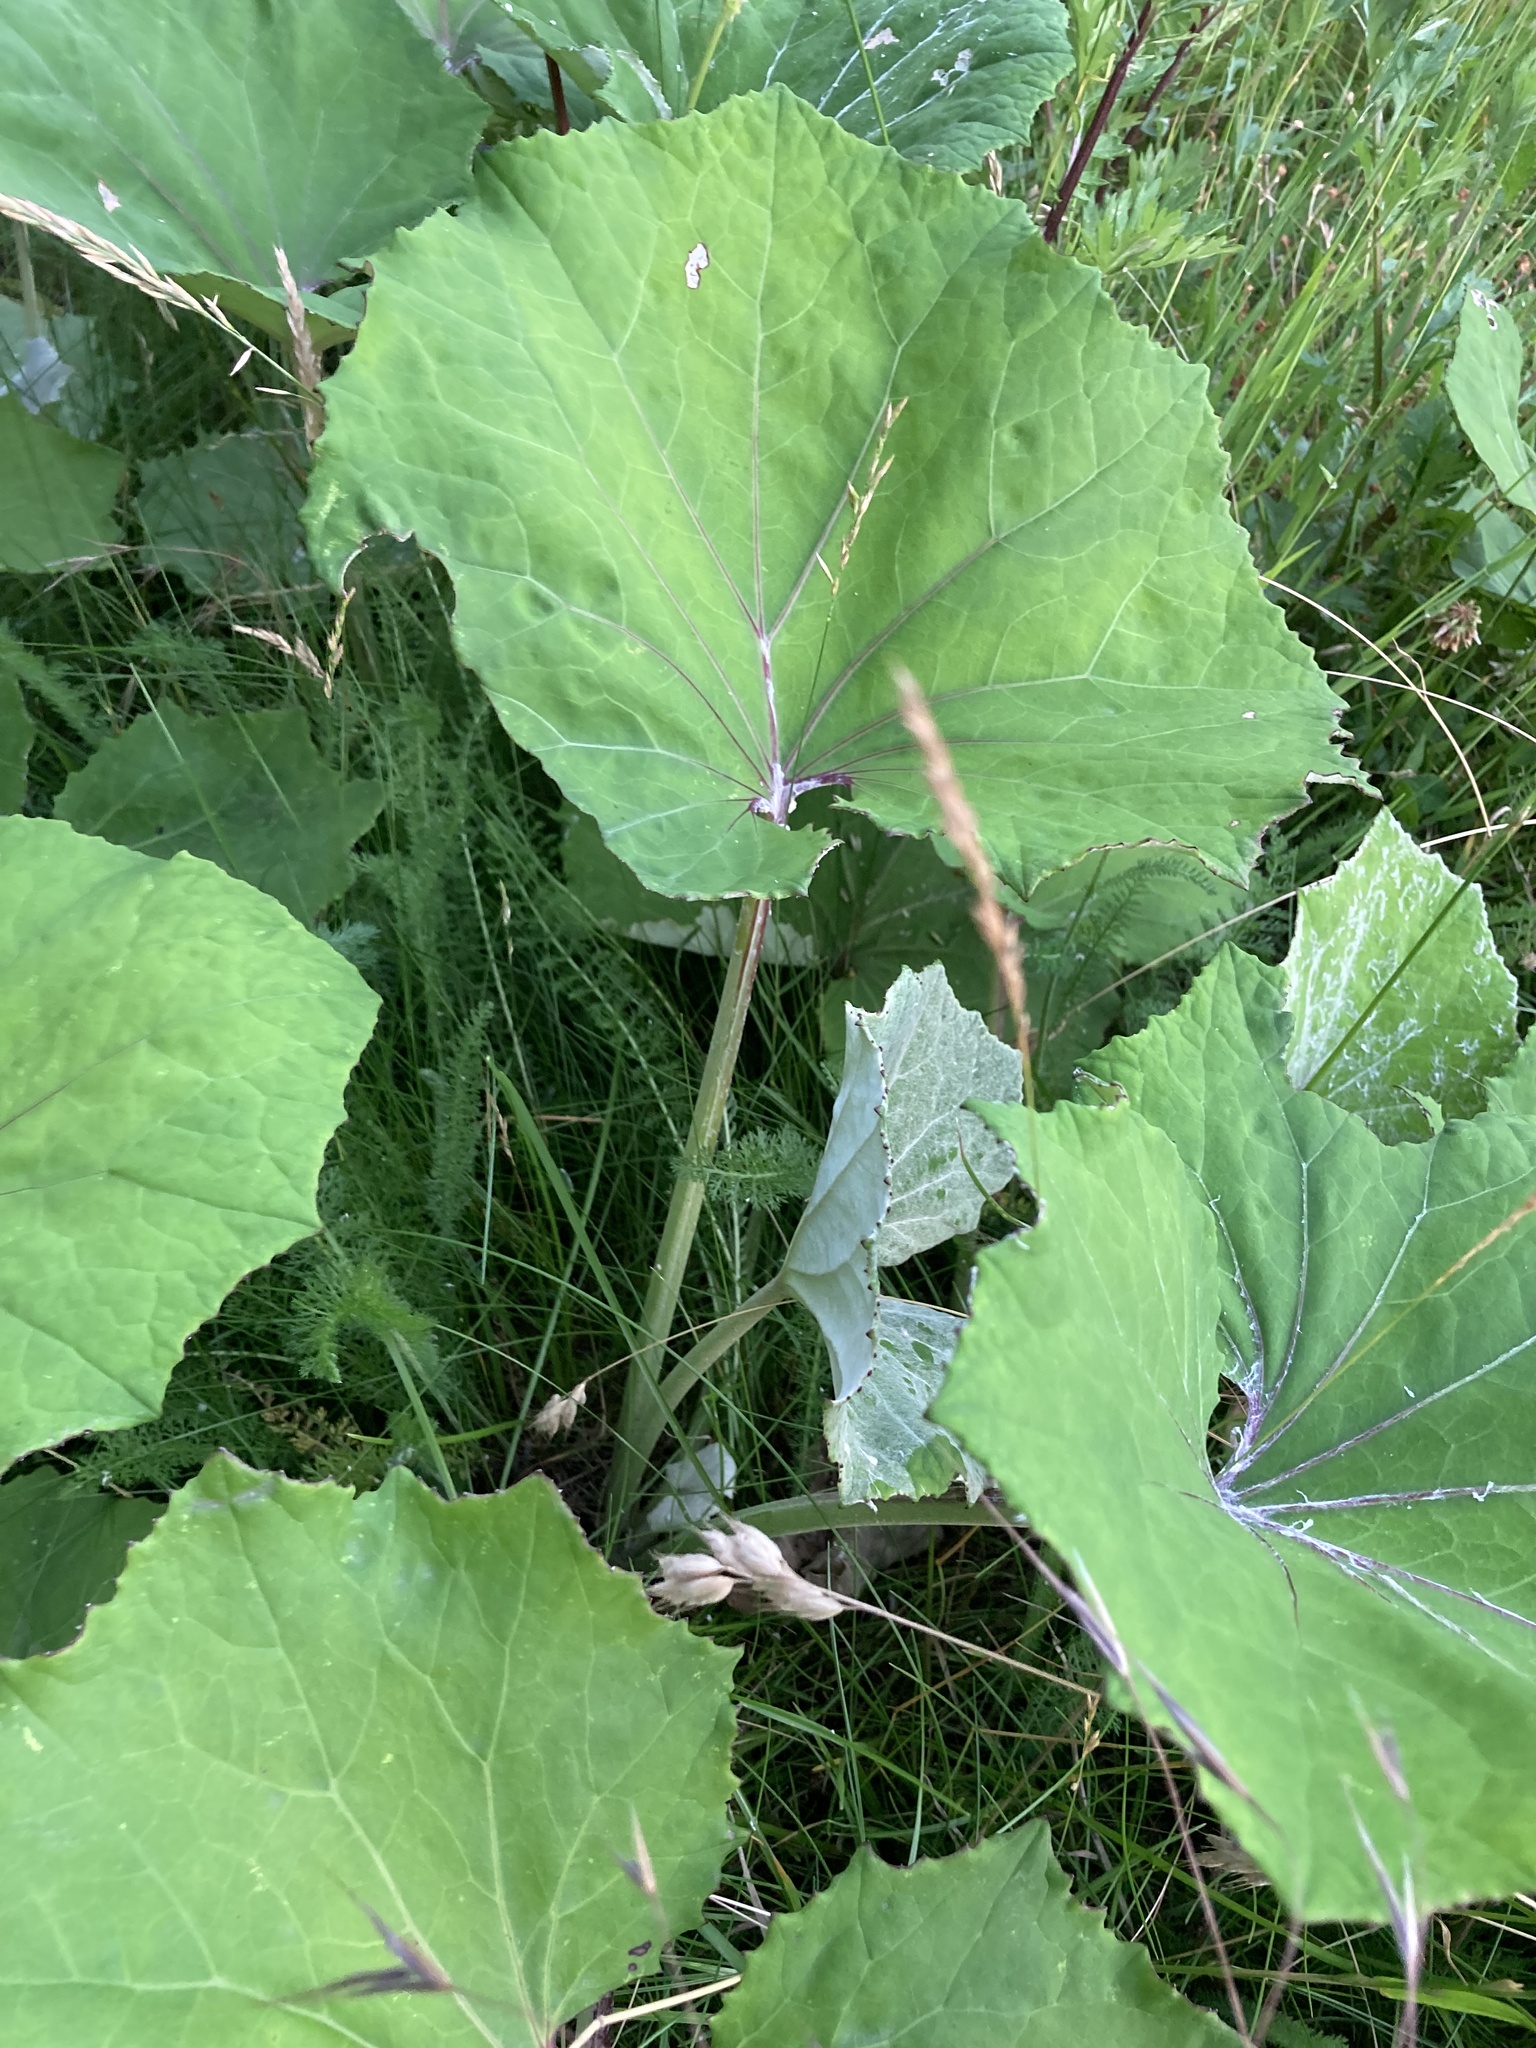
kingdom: Plantae
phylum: Tracheophyta
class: Magnoliopsida
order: Asterales
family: Asteraceae
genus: Tussilago
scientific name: Tussilago farfara
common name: Coltsfoot
